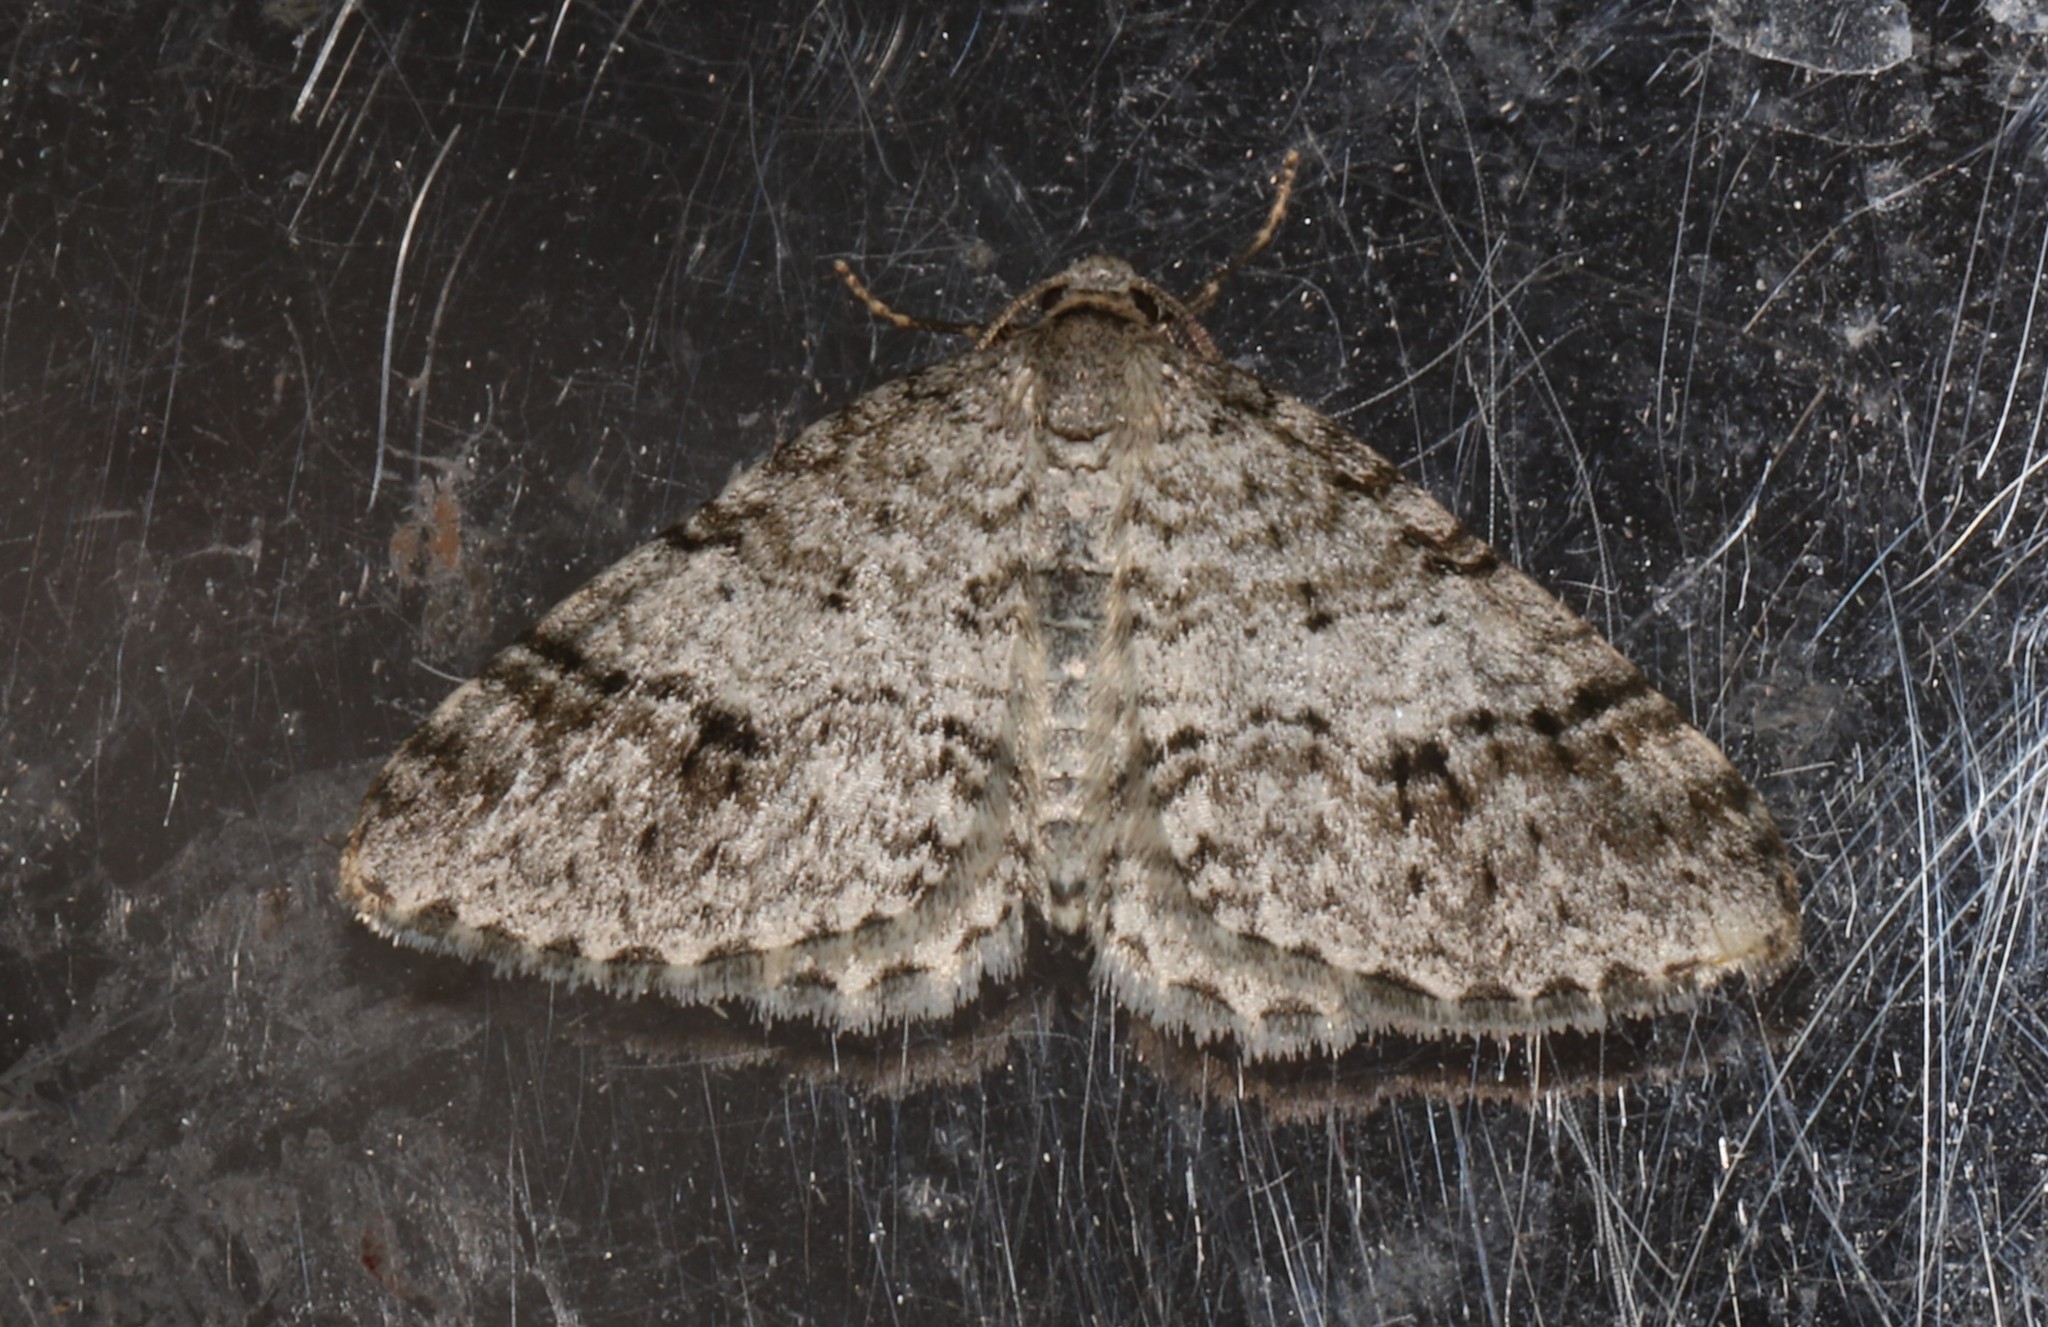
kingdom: Animalia
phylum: Arthropoda
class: Insecta
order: Lepidoptera
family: Geometridae
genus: Venusia
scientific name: Venusia cambrica
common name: Welsh wave
